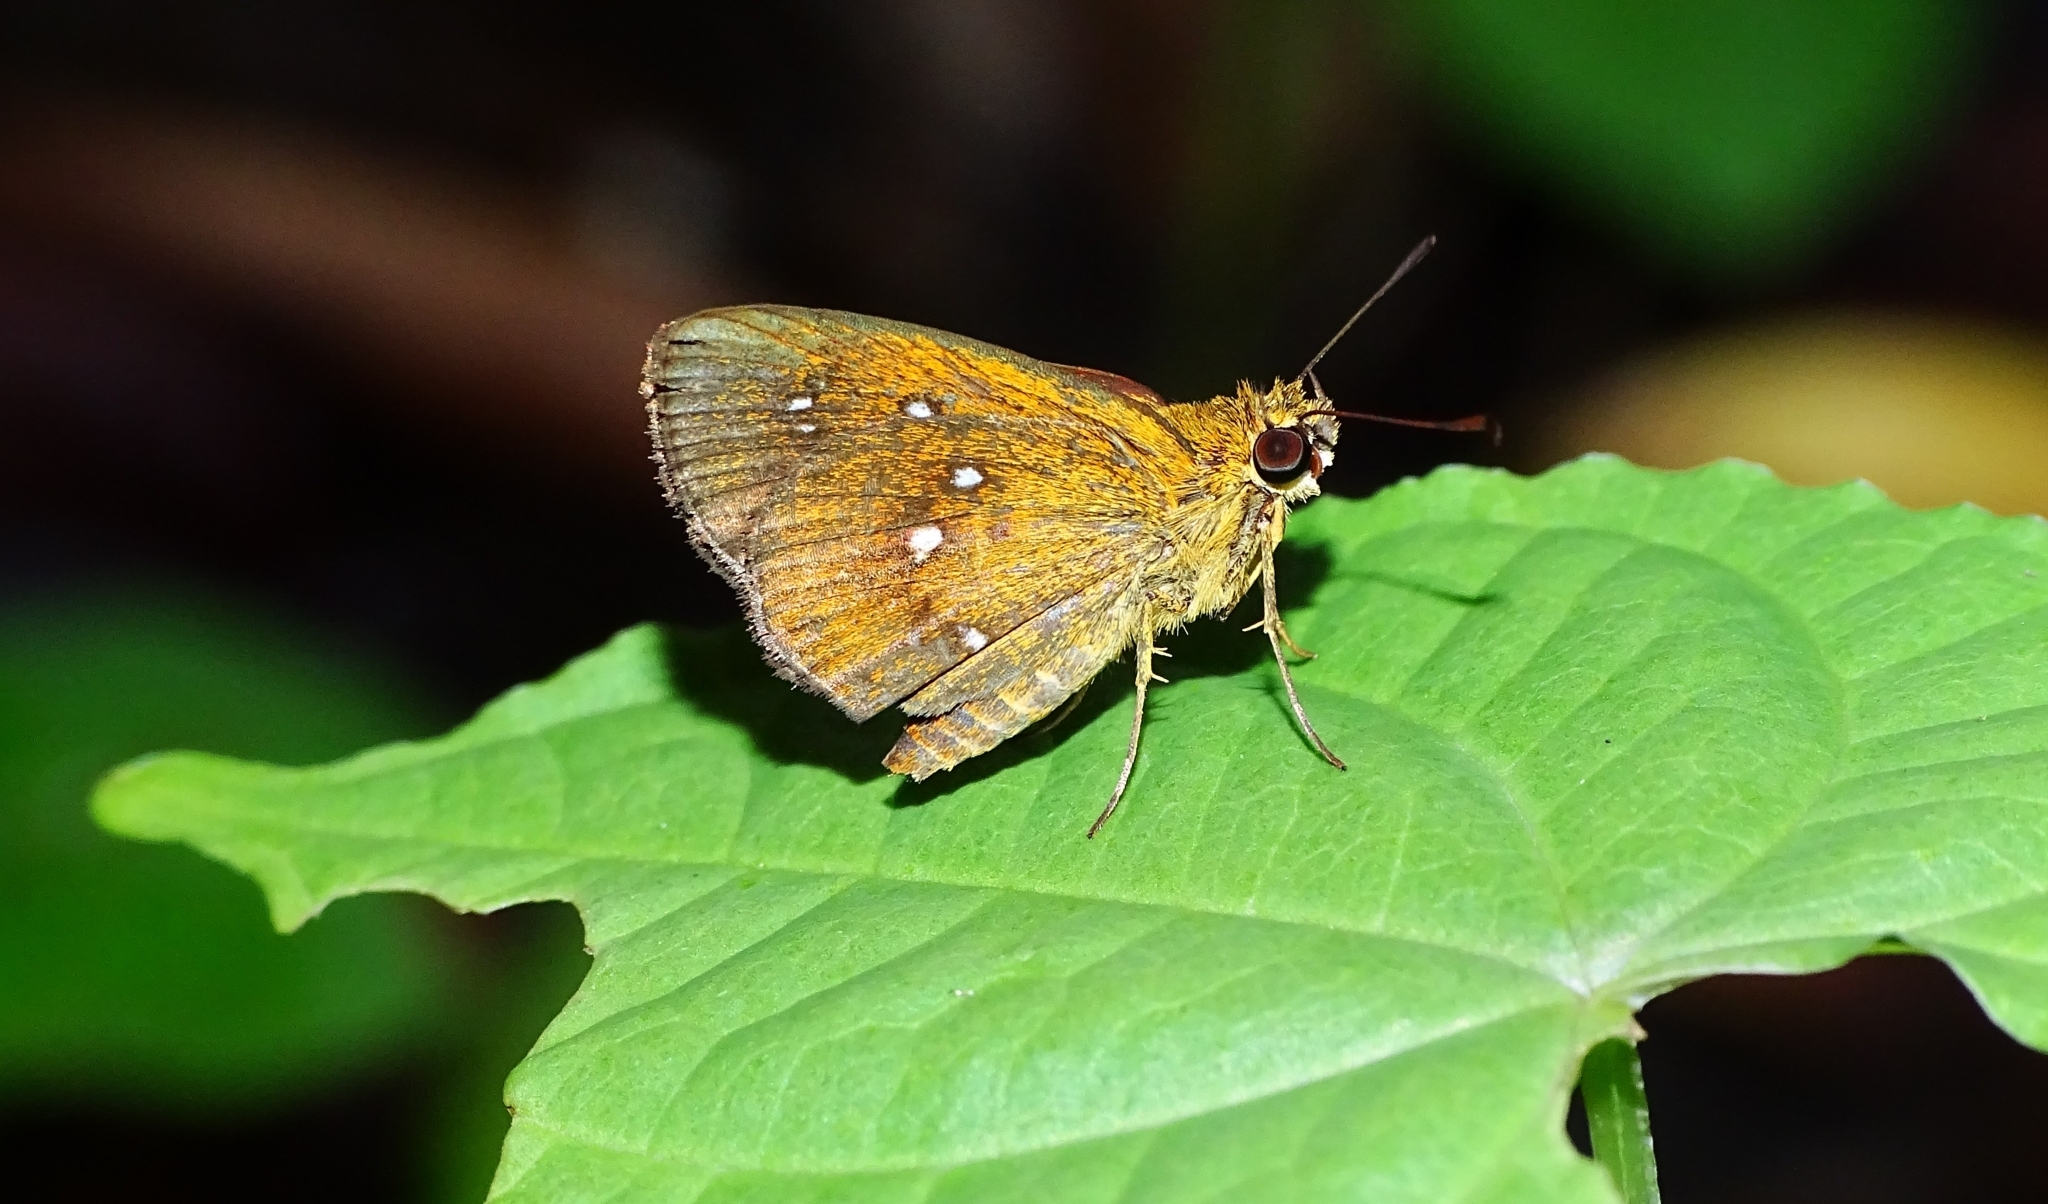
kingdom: Animalia
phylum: Arthropoda
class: Insecta
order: Lepidoptera
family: Hesperiidae
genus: Iambrix
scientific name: Iambrix salsala
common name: Chestnut bob
